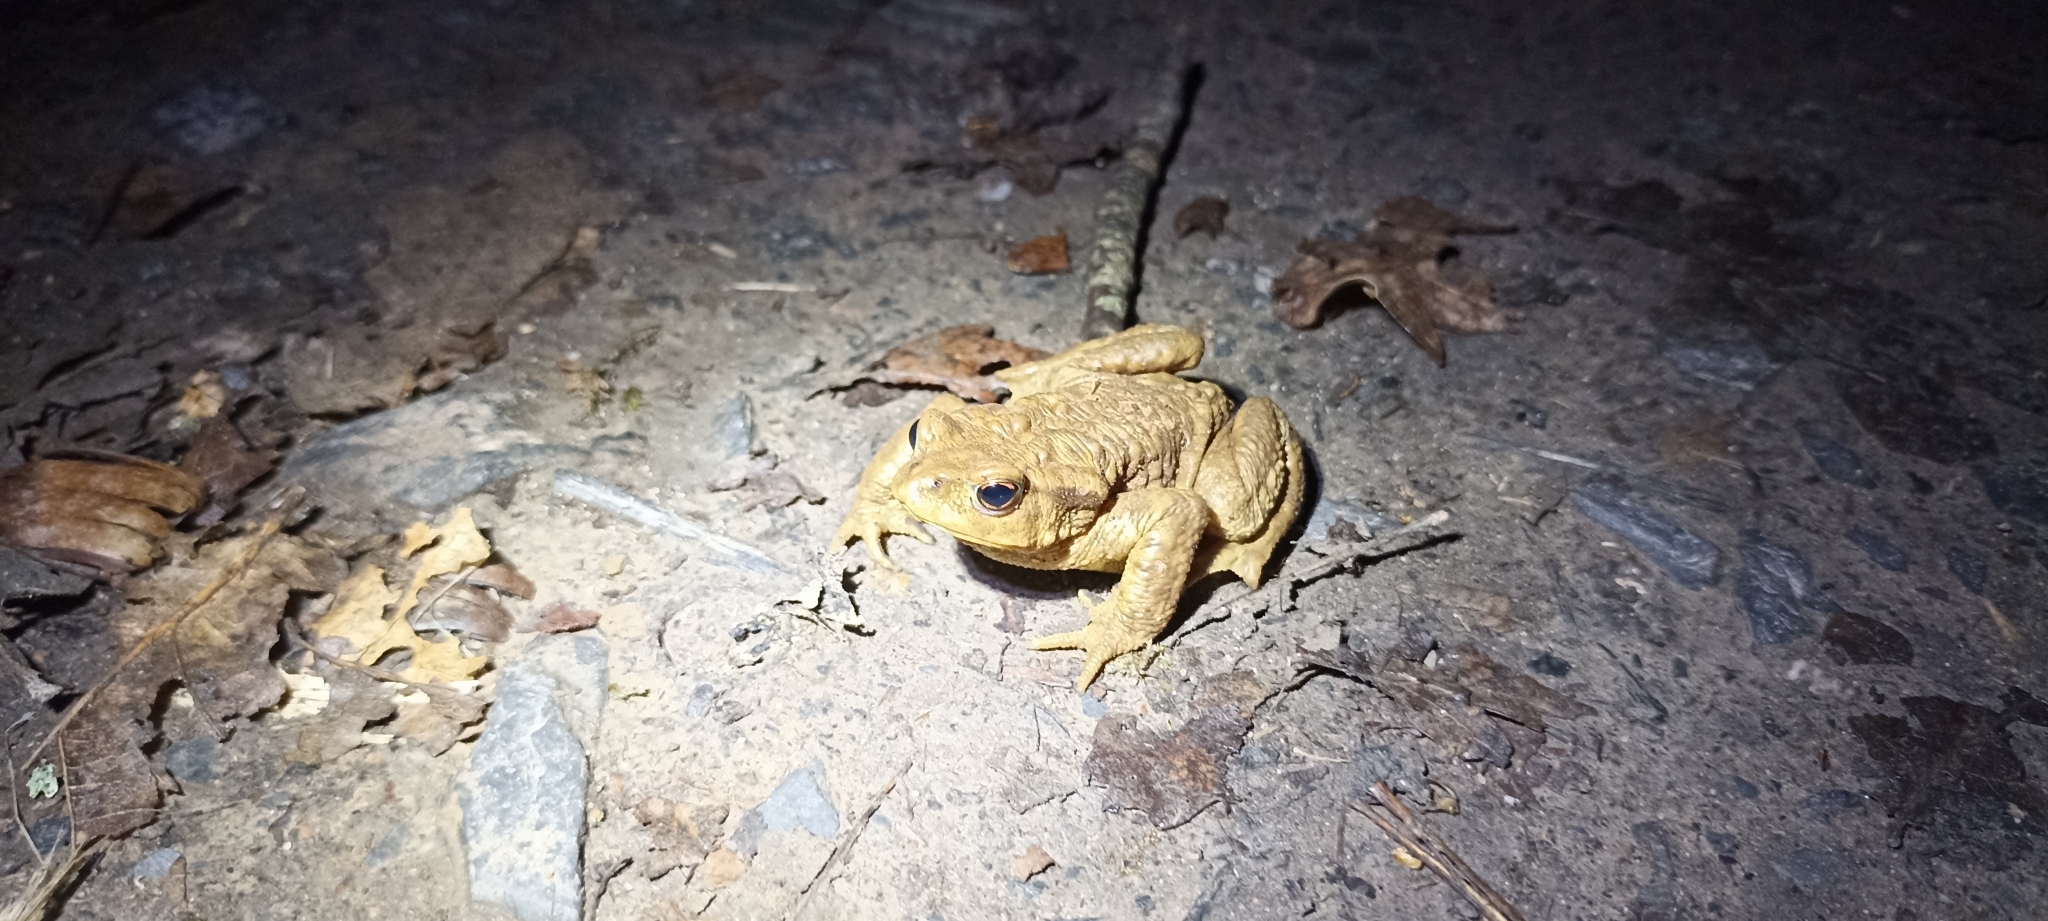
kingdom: Animalia
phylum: Chordata
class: Amphibia
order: Anura
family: Bufonidae
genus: Bufo
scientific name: Bufo spinosus
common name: Western common toad
